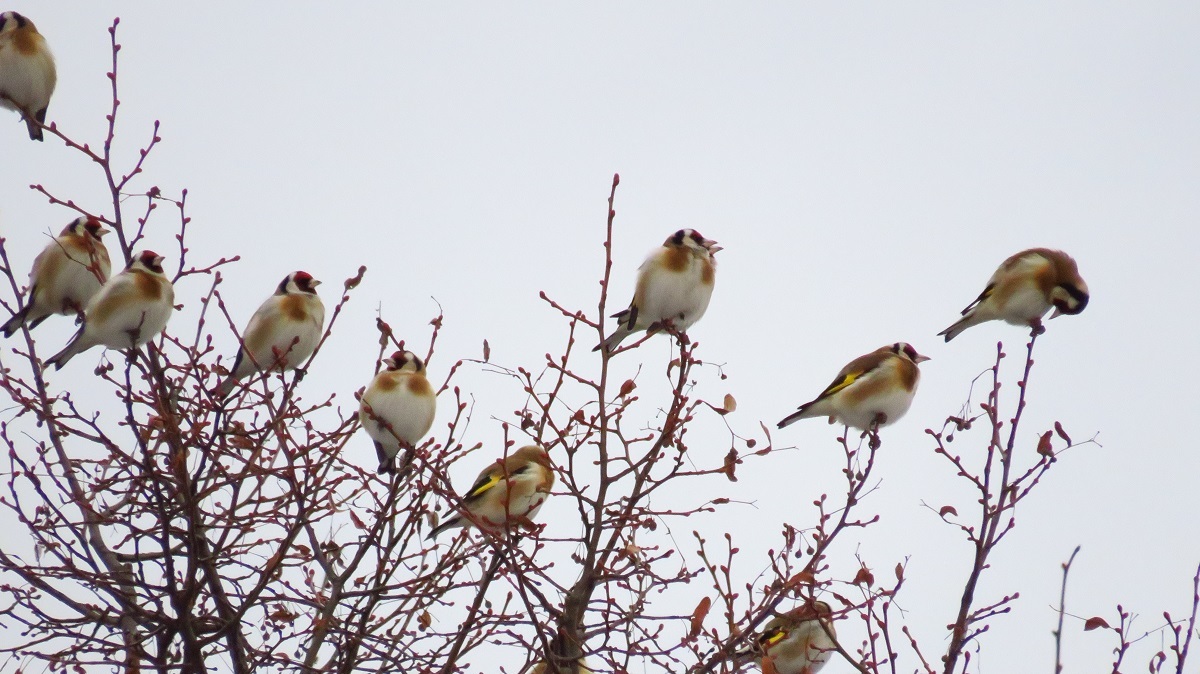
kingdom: Animalia
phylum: Chordata
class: Aves
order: Passeriformes
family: Fringillidae
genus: Carduelis
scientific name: Carduelis carduelis
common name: European goldfinch
